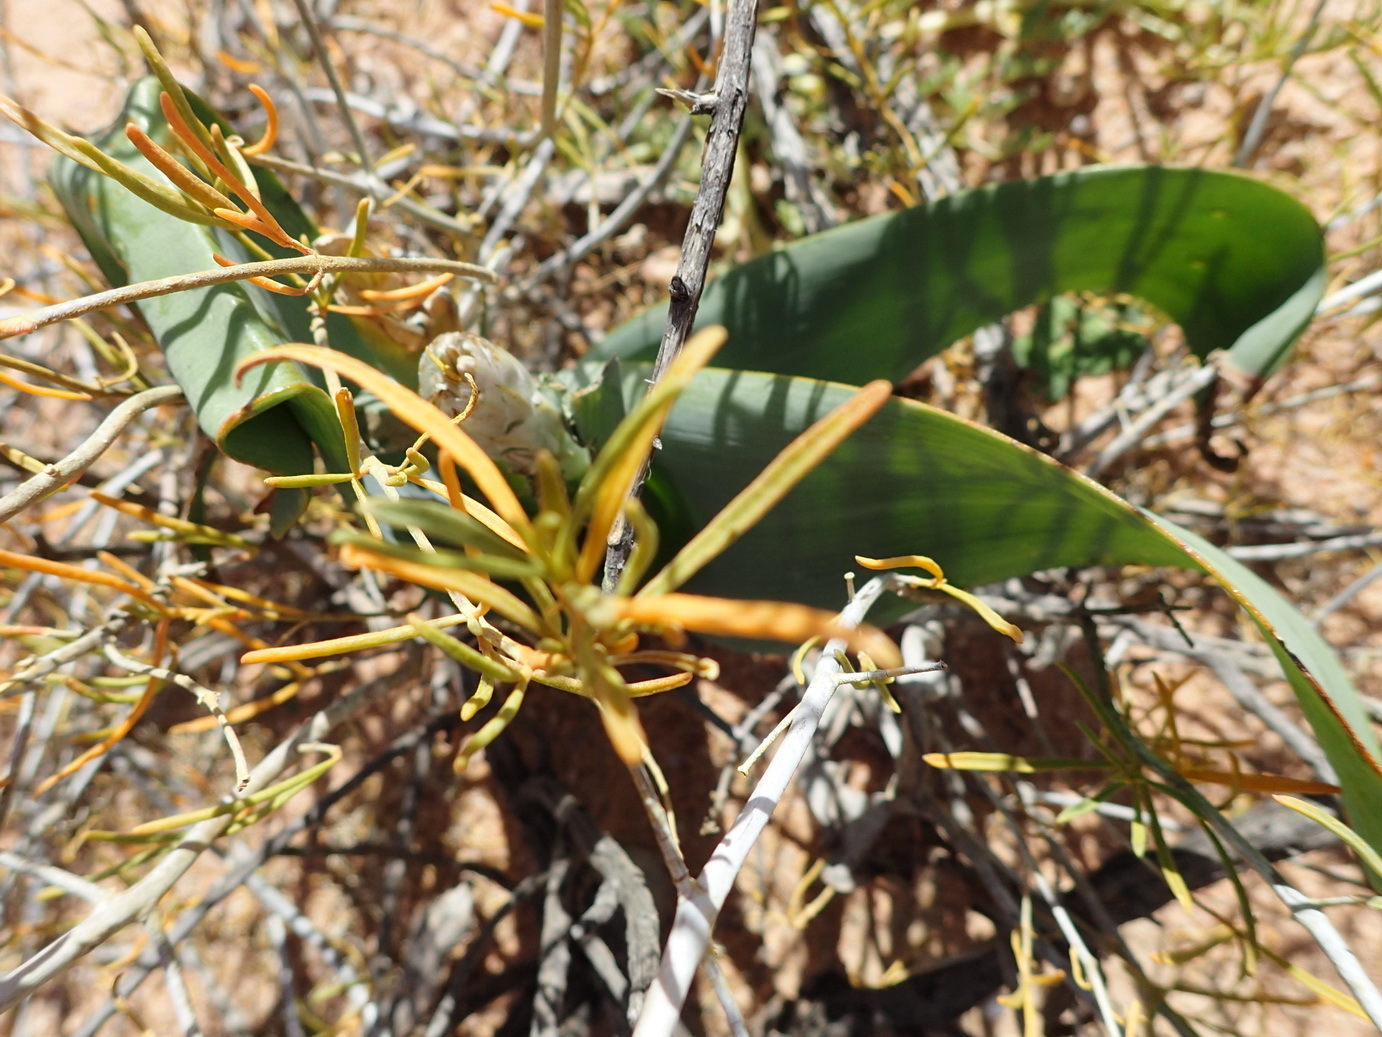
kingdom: Plantae
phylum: Tracheophyta
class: Liliopsida
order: Asparagales
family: Asphodelaceae
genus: Trachyandra
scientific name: Trachyandra falcata
